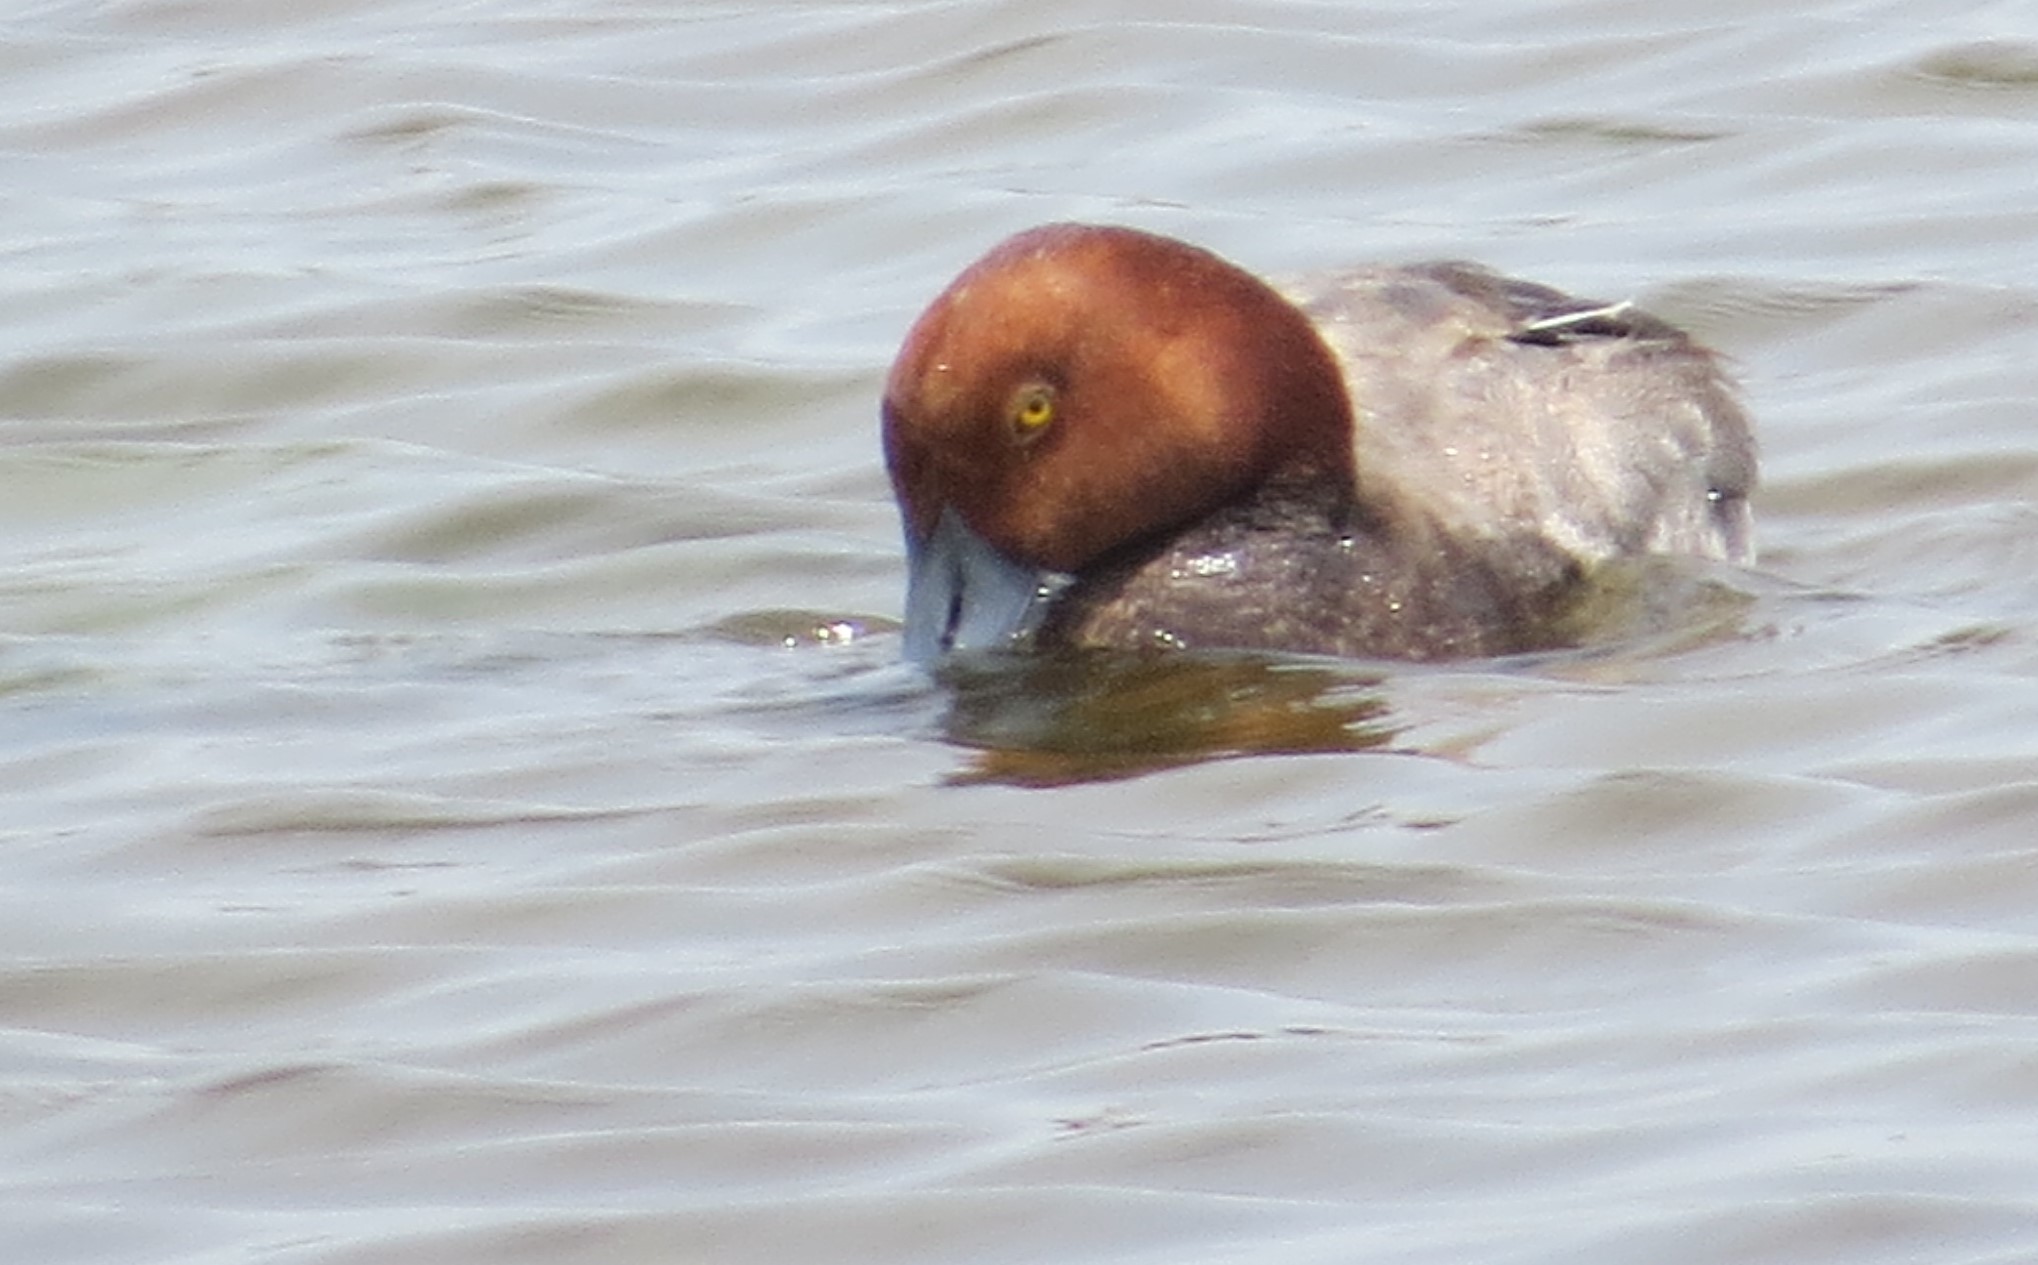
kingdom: Animalia
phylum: Chordata
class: Aves
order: Anseriformes
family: Anatidae
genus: Aythya
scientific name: Aythya americana
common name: Redhead
